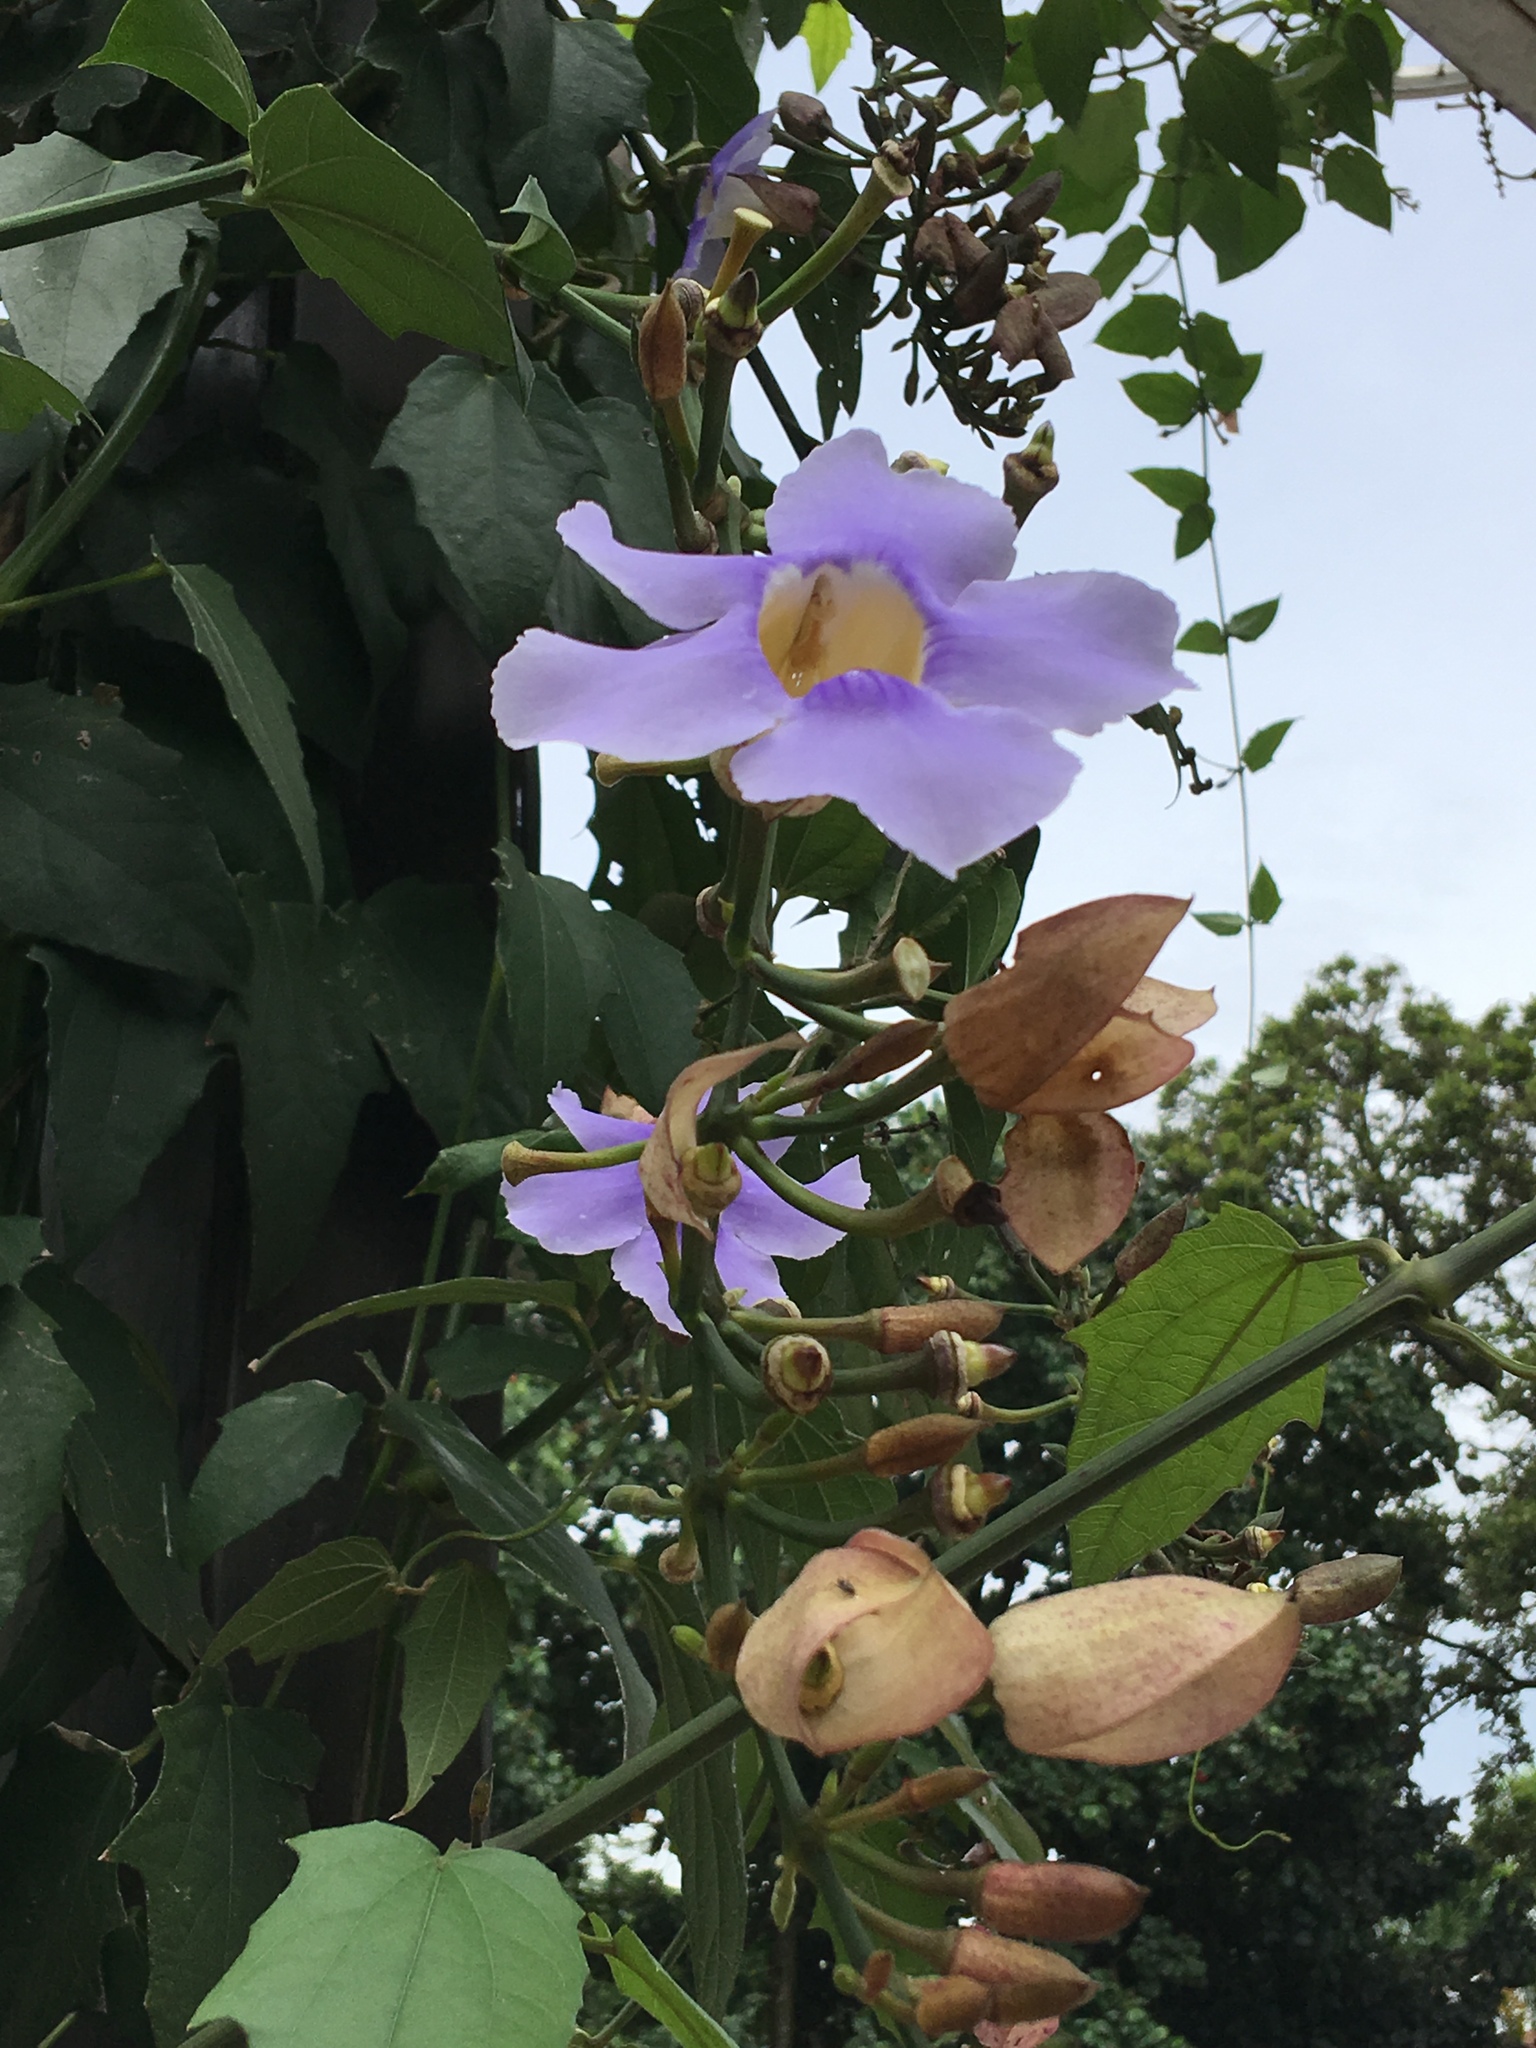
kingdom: Plantae
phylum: Tracheophyta
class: Magnoliopsida
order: Lamiales
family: Acanthaceae
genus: Thunbergia
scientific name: Thunbergia grandiflora
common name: Bengal trumpet
